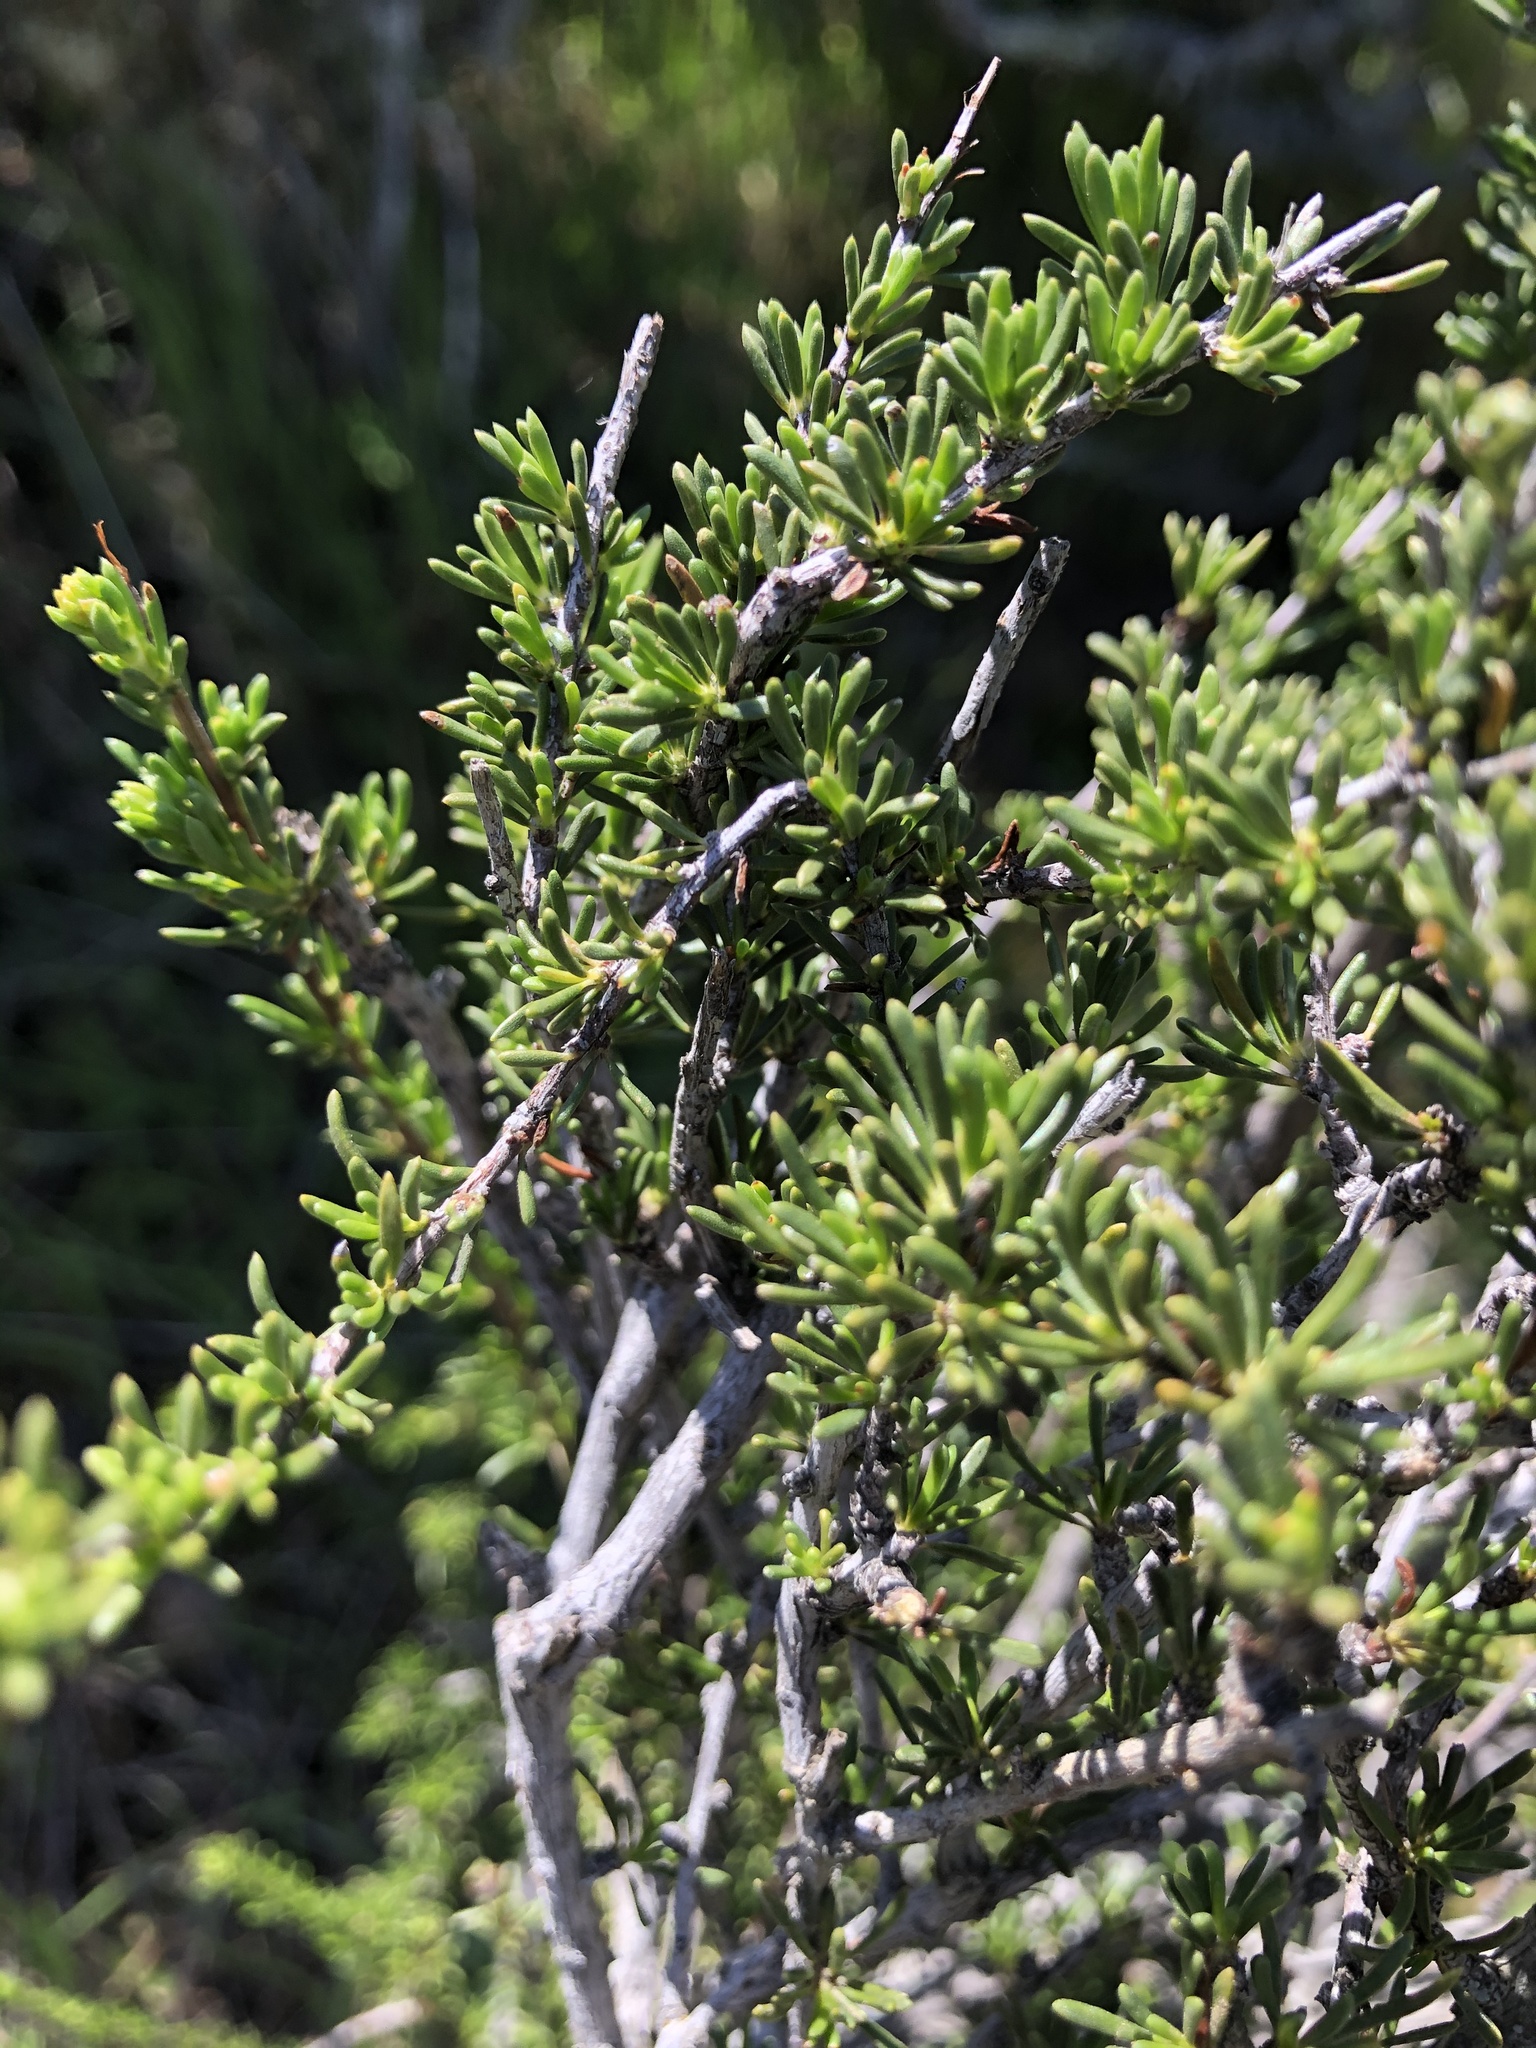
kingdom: Plantae
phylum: Tracheophyta
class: Magnoliopsida
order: Rosales
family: Rosaceae
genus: Adenostoma
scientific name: Adenostoma fasciculatum
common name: Chamise
